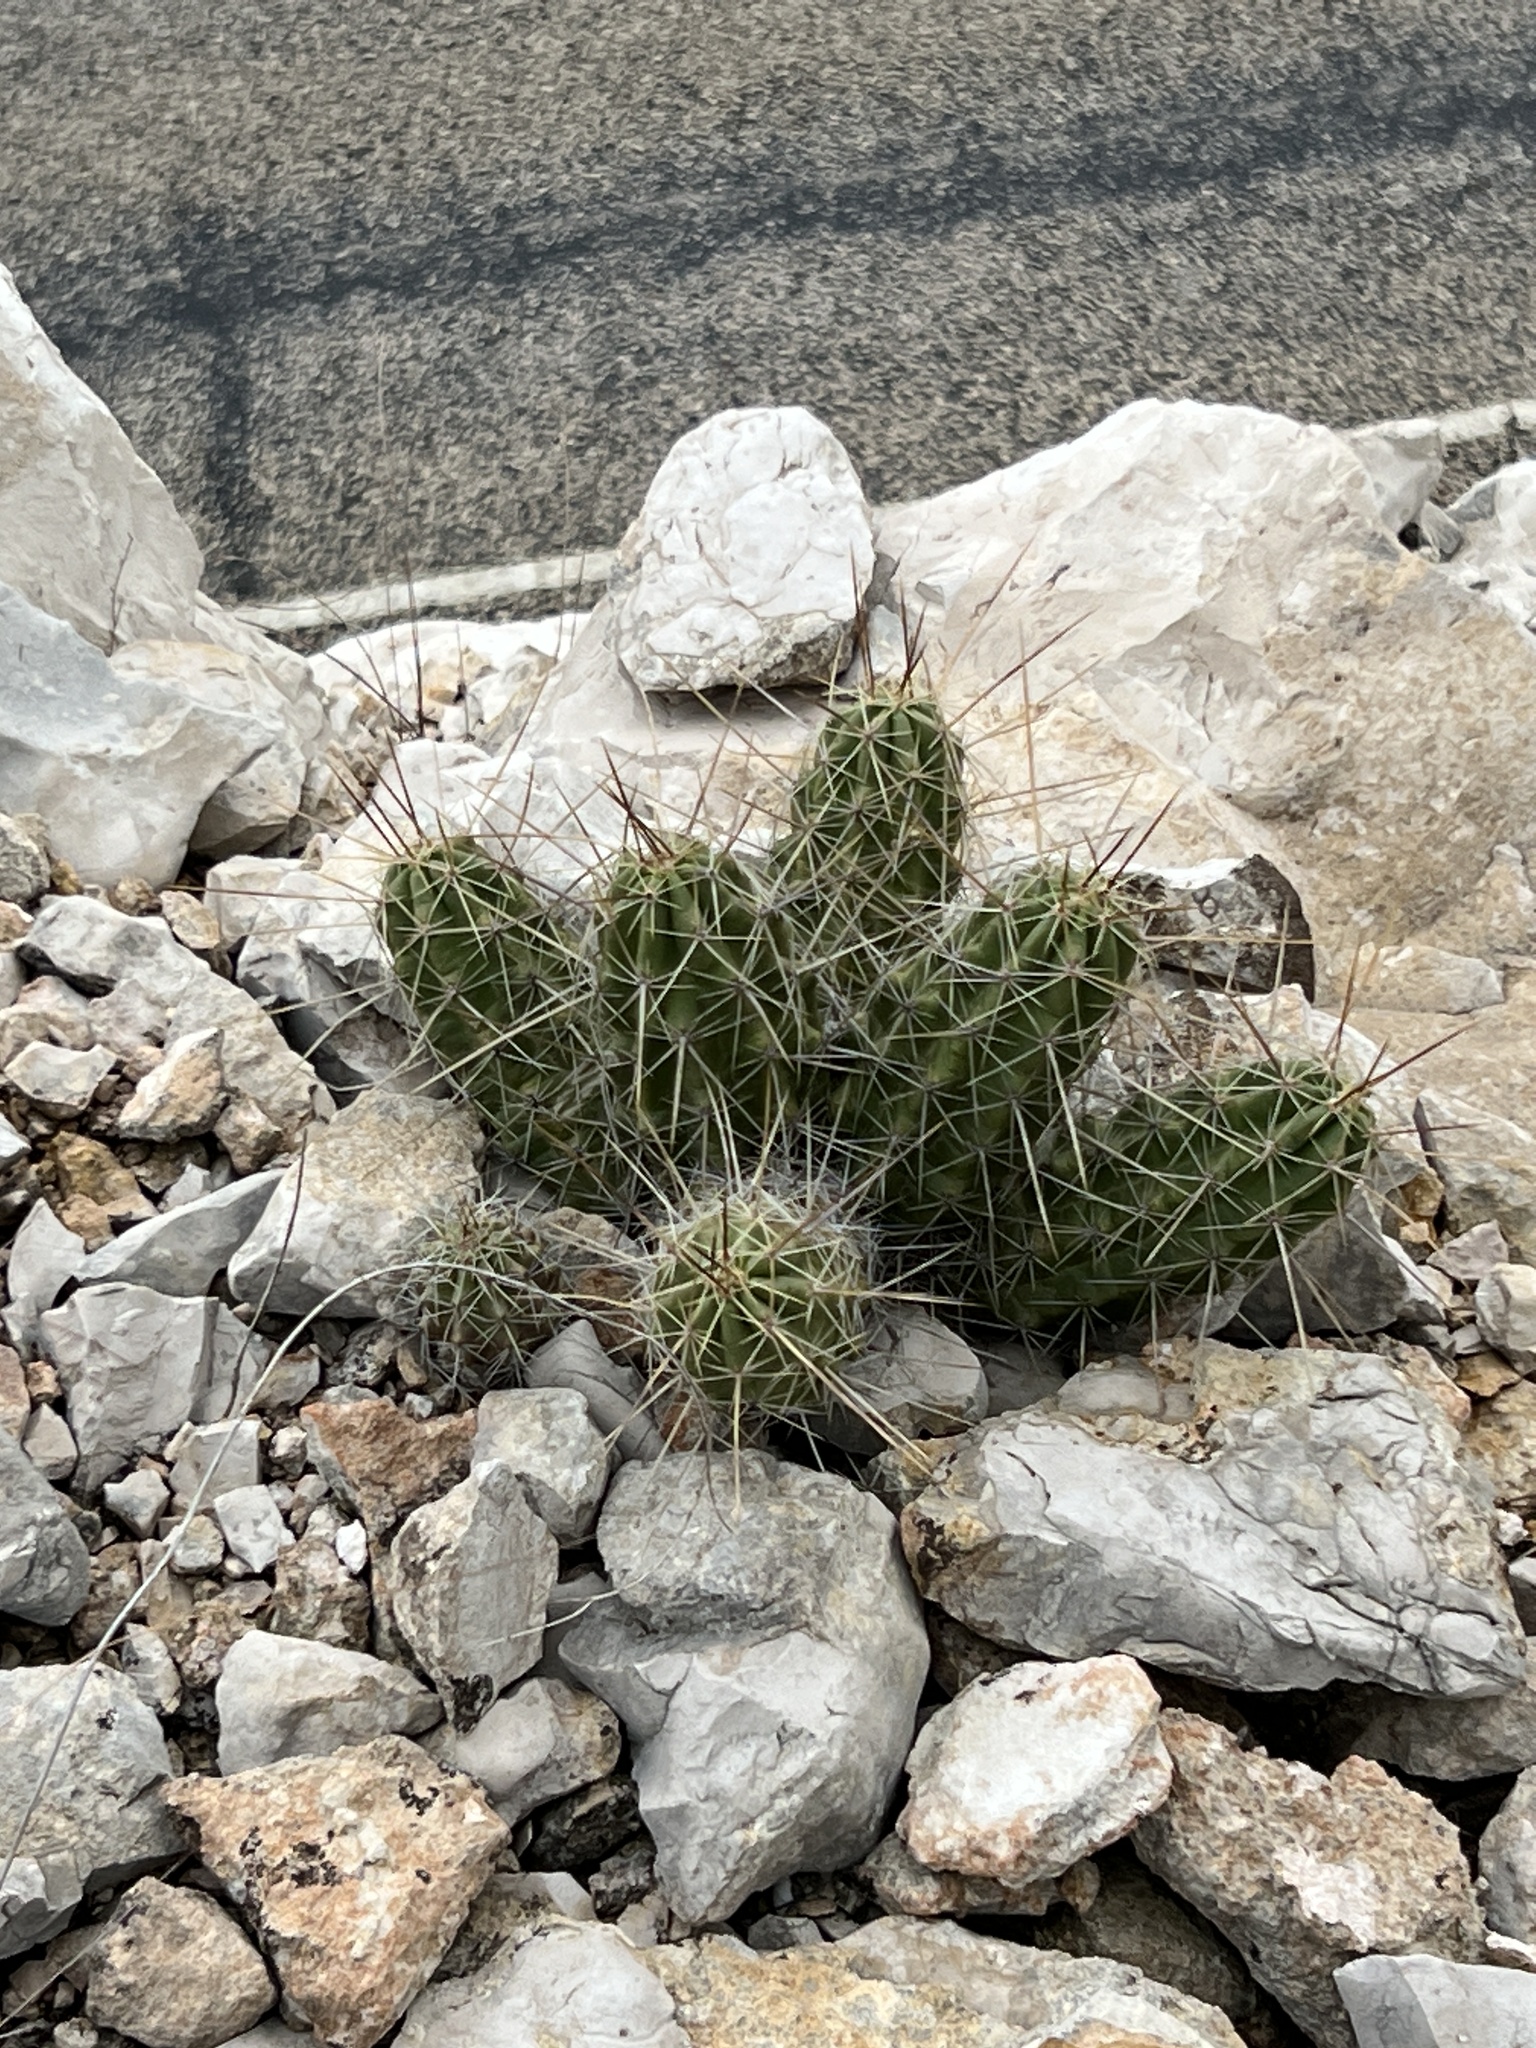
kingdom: Plantae
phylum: Tracheophyta
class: Magnoliopsida
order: Caryophyllales
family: Cactaceae
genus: Echinocereus
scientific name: Echinocereus enneacanthus
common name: Pitaya
